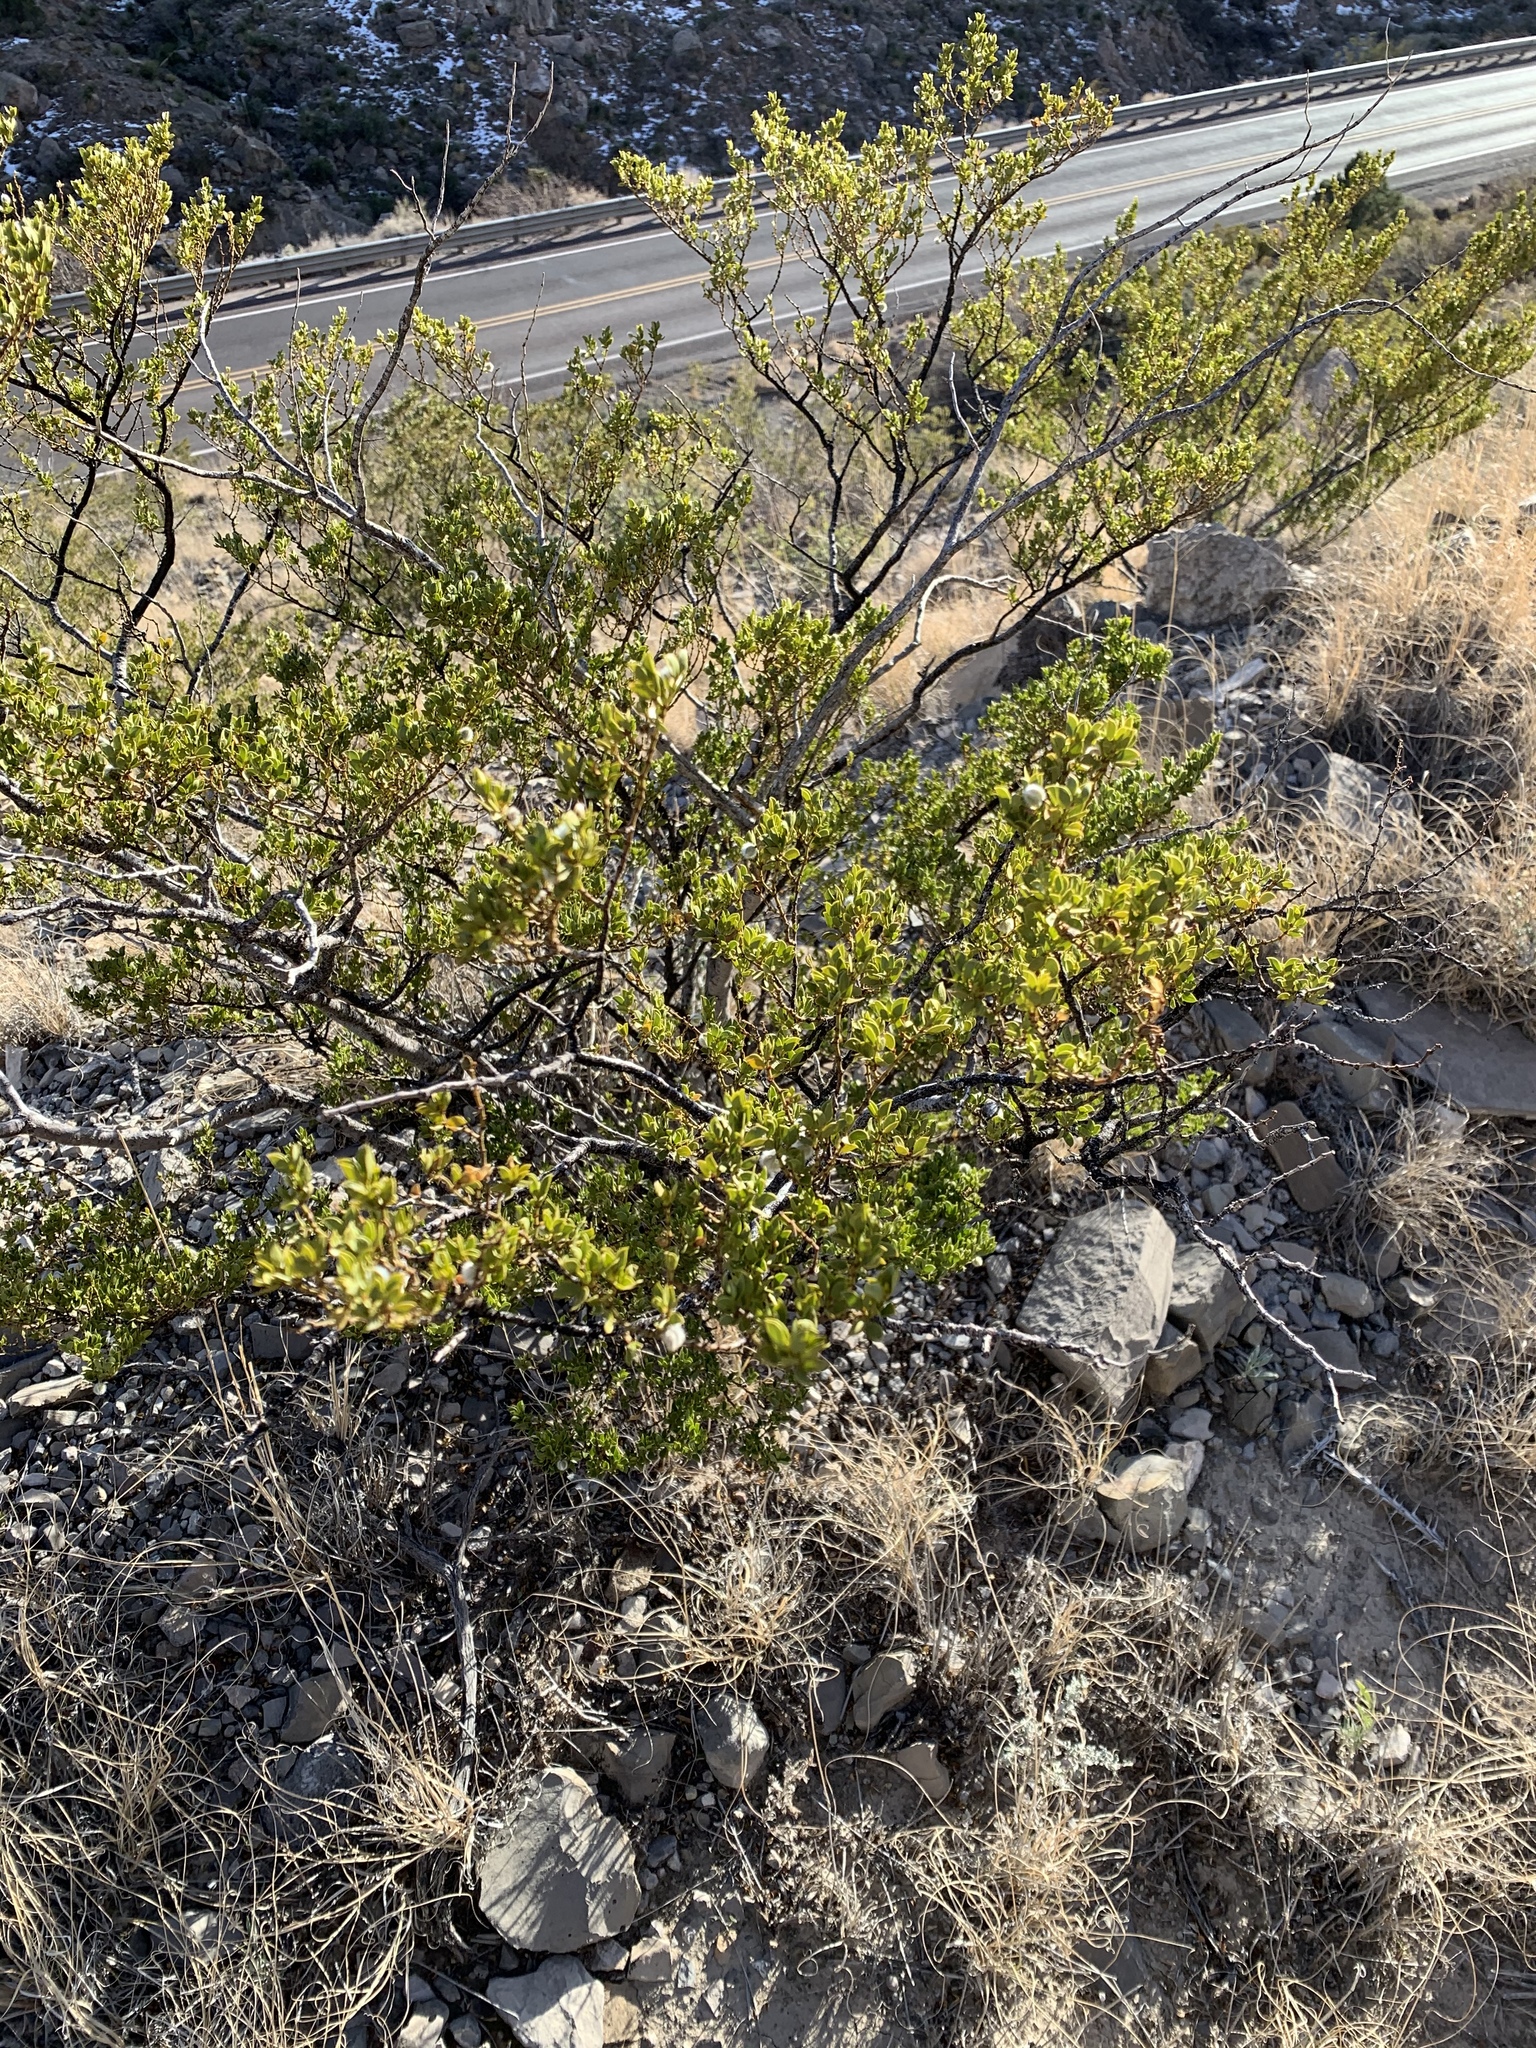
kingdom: Plantae
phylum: Tracheophyta
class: Magnoliopsida
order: Zygophyllales
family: Zygophyllaceae
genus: Larrea
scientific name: Larrea tridentata
